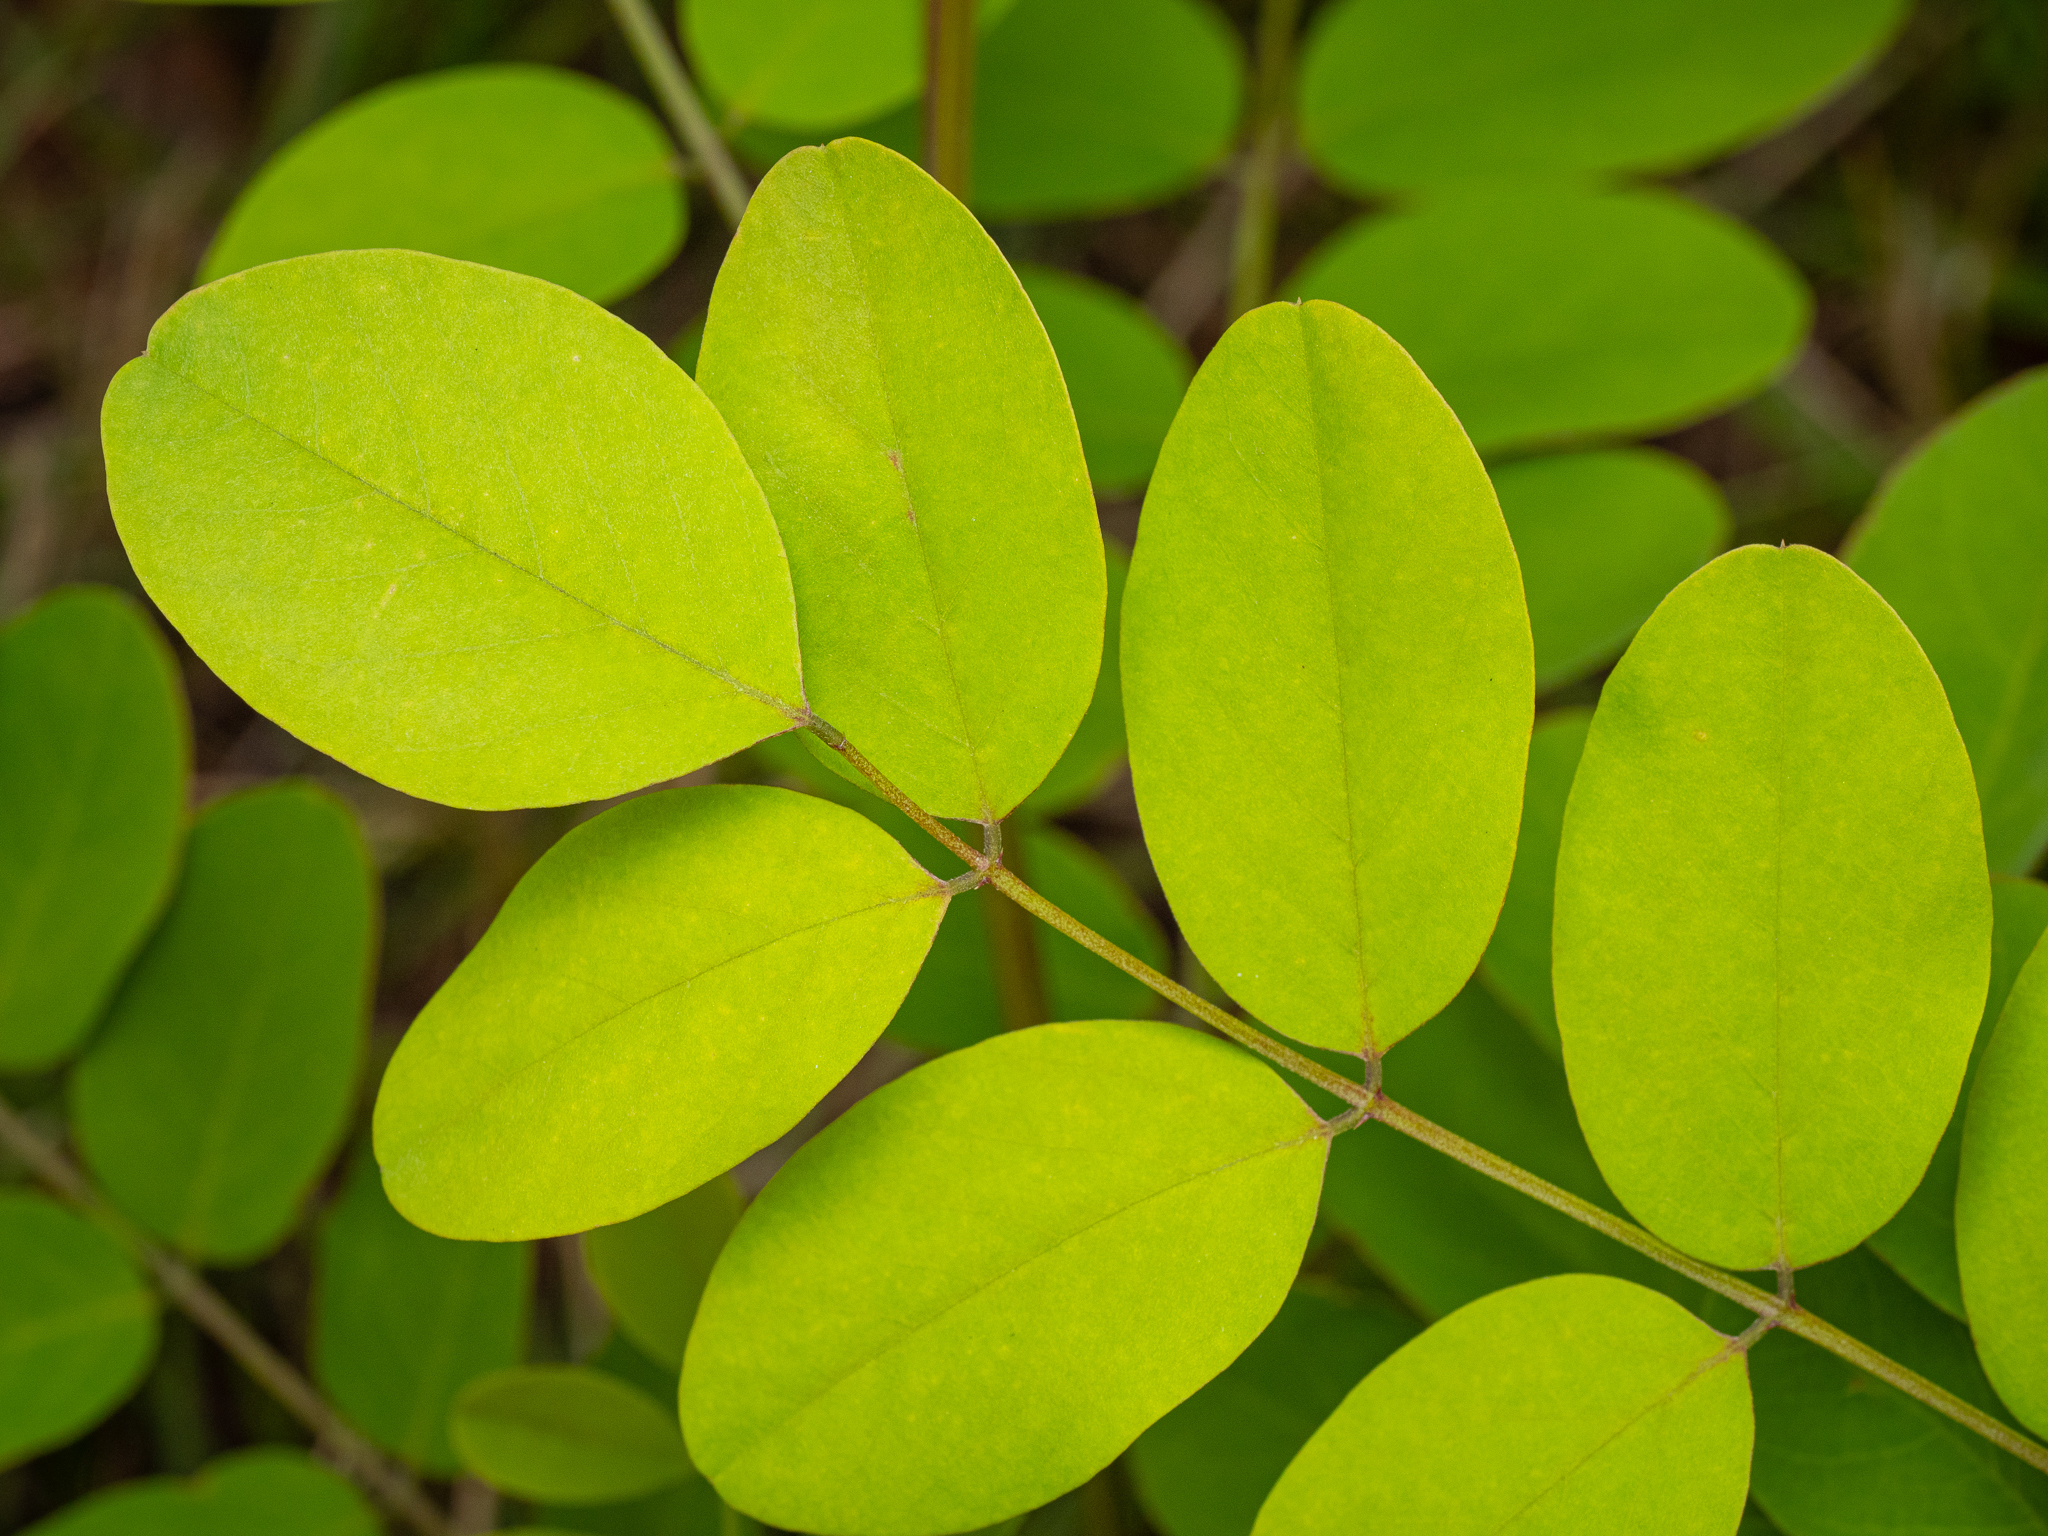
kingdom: Plantae
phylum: Tracheophyta
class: Magnoliopsida
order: Fabales
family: Fabaceae
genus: Robinia
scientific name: Robinia pseudoacacia
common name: Black locust
